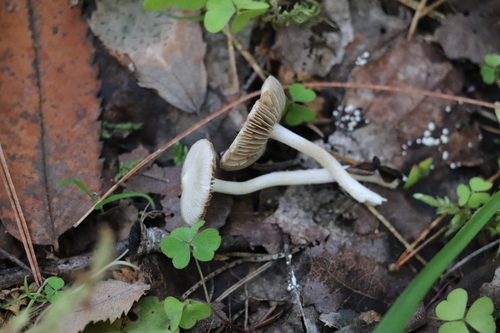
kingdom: Fungi
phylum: Basidiomycota
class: Agaricomycetes
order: Agaricales
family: Inocybaceae
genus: Inocybe
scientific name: Inocybe geophylla
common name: White fibrecap
